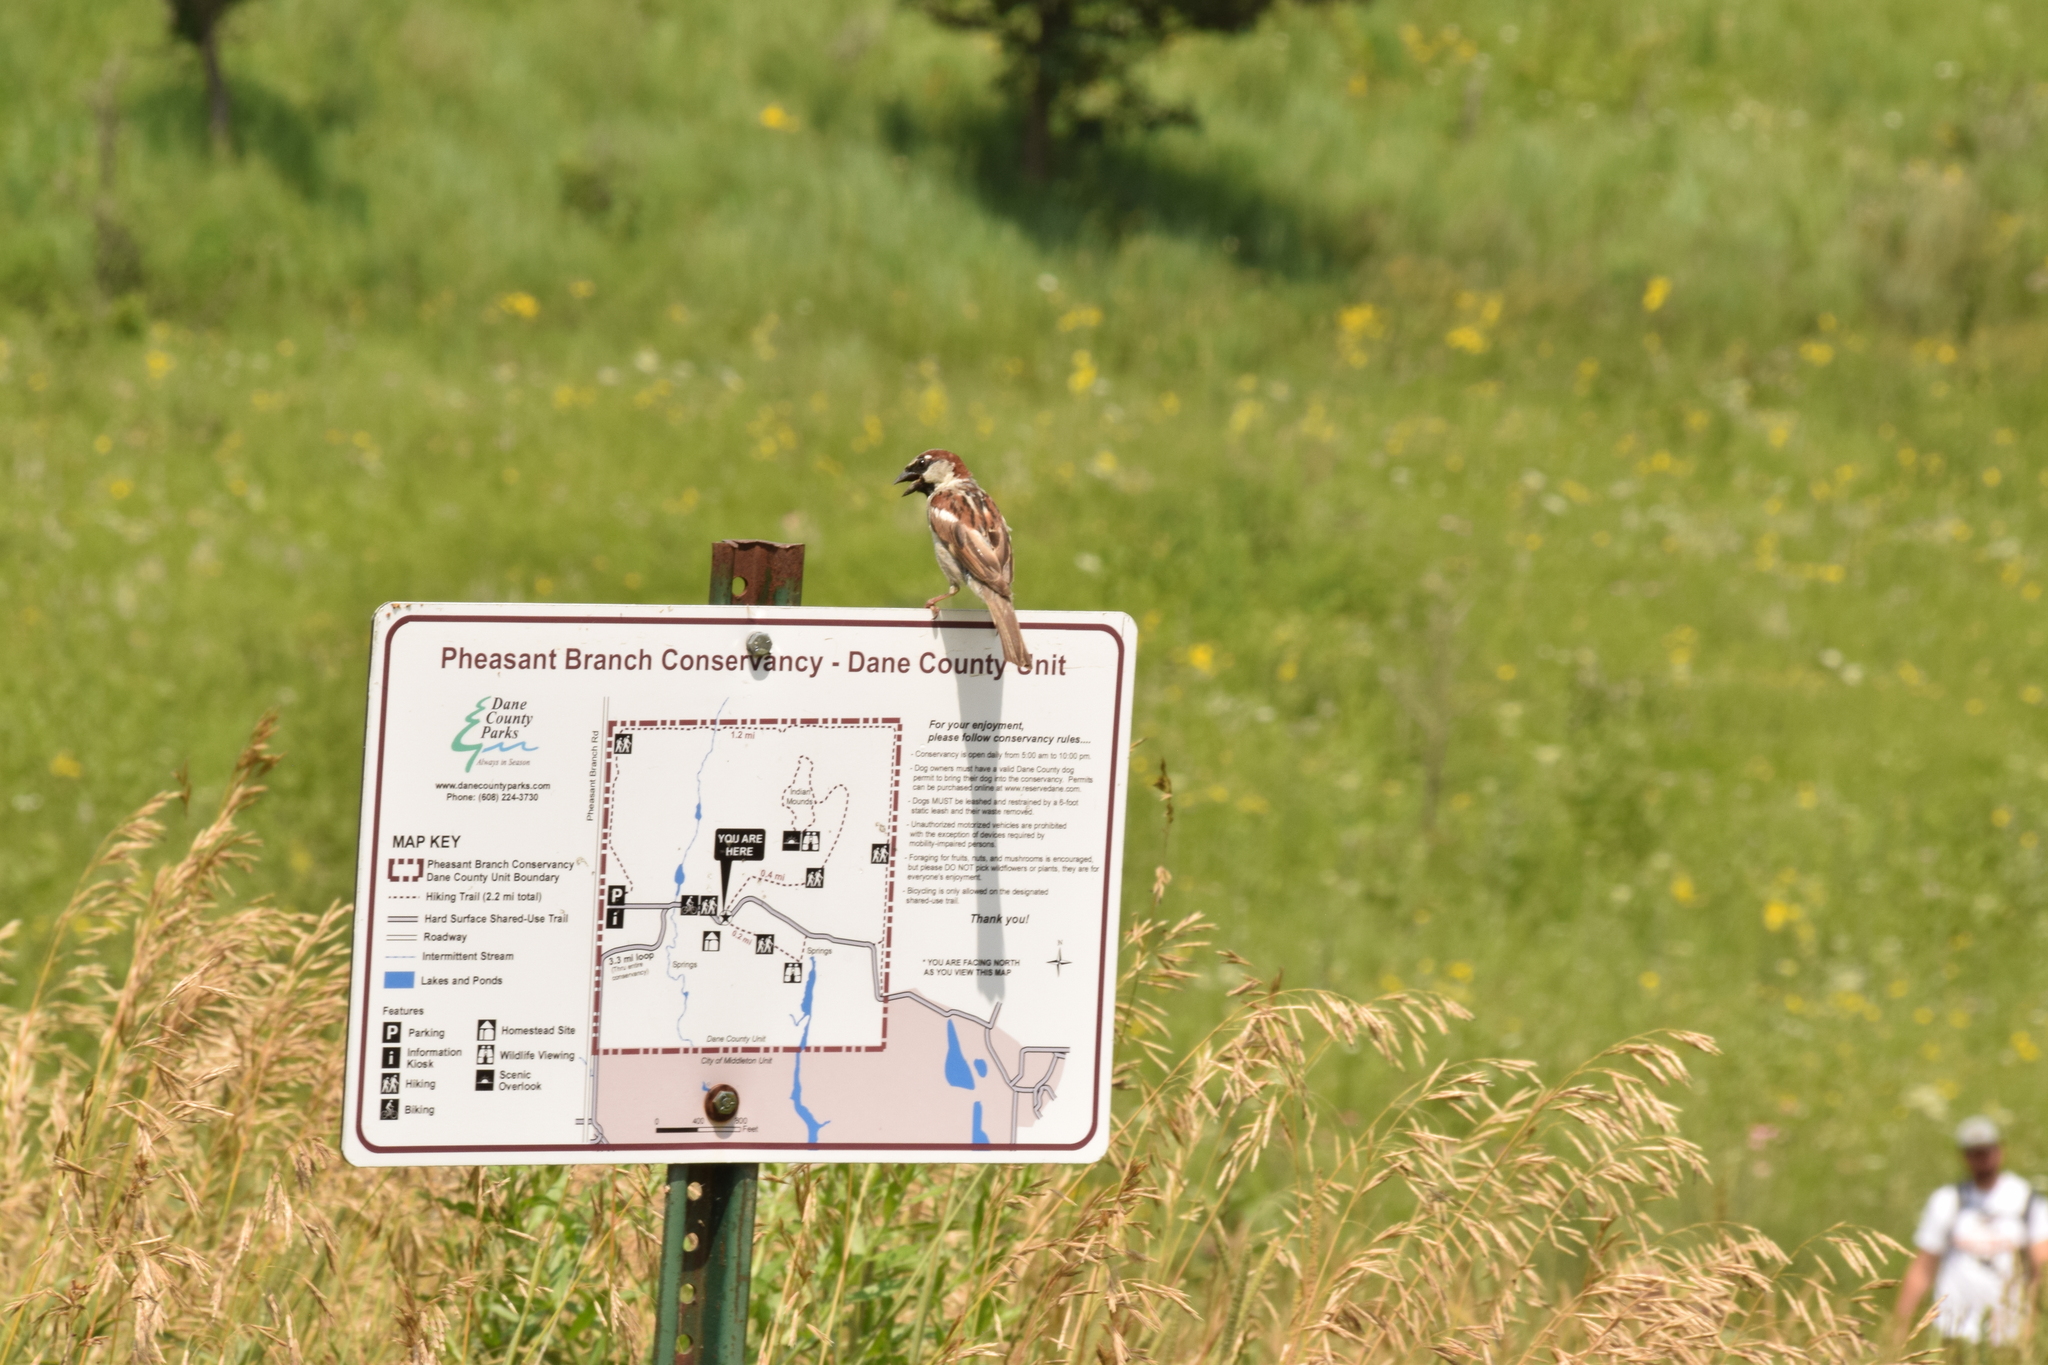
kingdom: Animalia
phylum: Chordata
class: Aves
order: Passeriformes
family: Passeridae
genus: Passer
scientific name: Passer domesticus
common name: House sparrow
